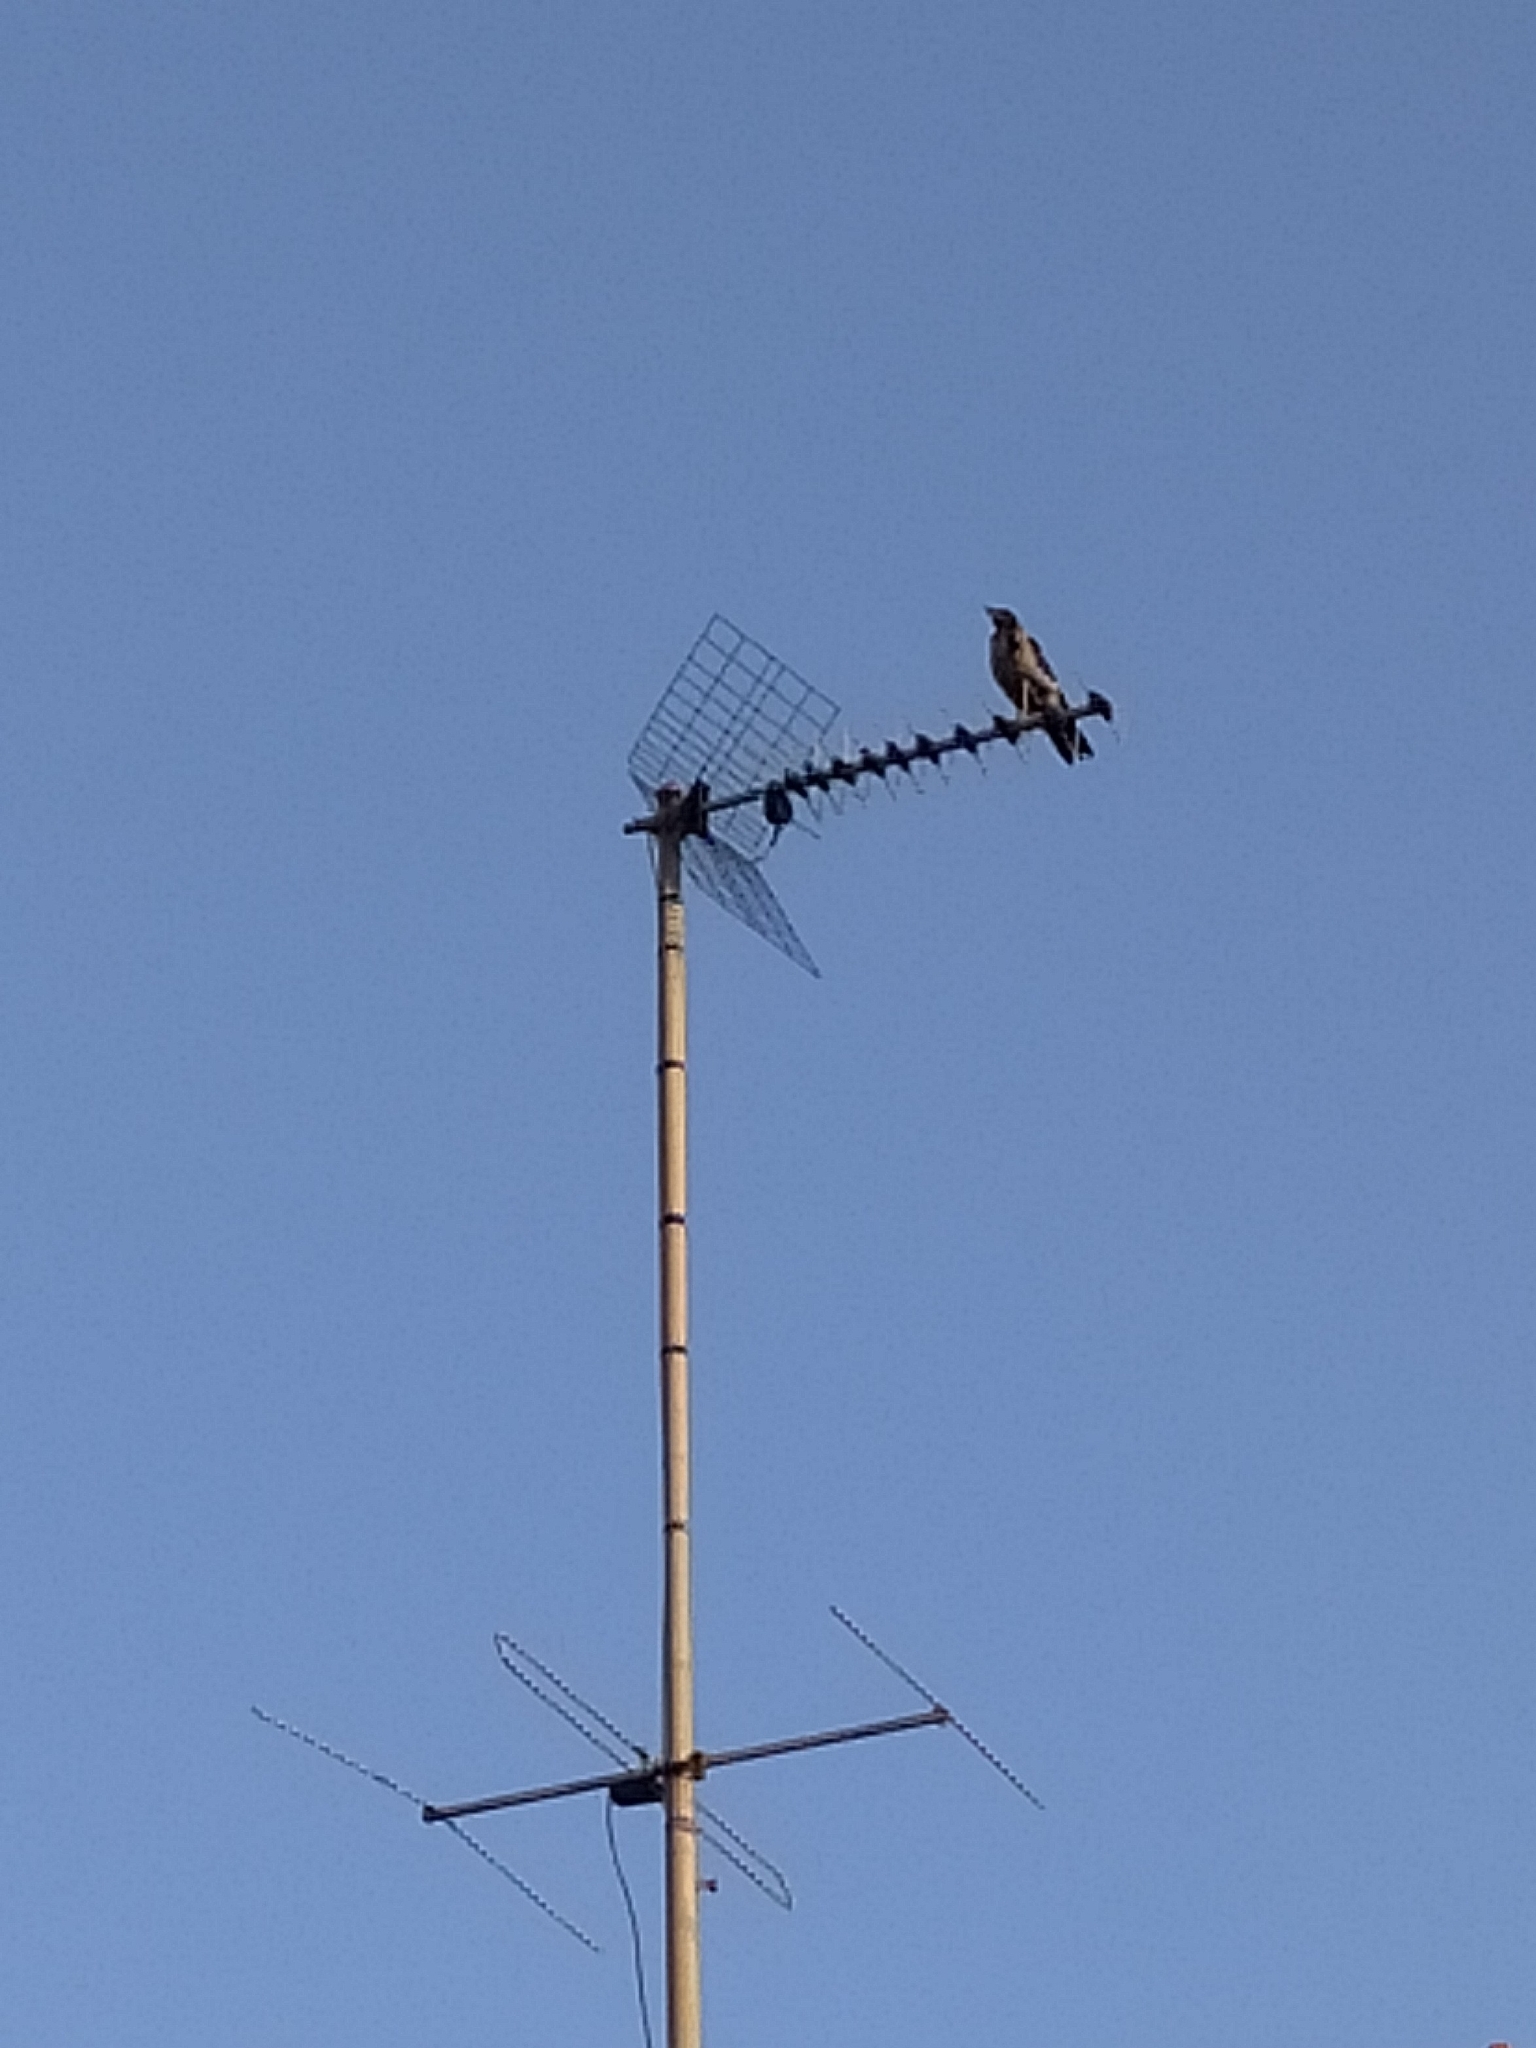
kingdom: Animalia
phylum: Chordata
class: Aves
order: Passeriformes
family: Corvidae
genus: Corvus
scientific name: Corvus cornix
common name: Hooded crow
